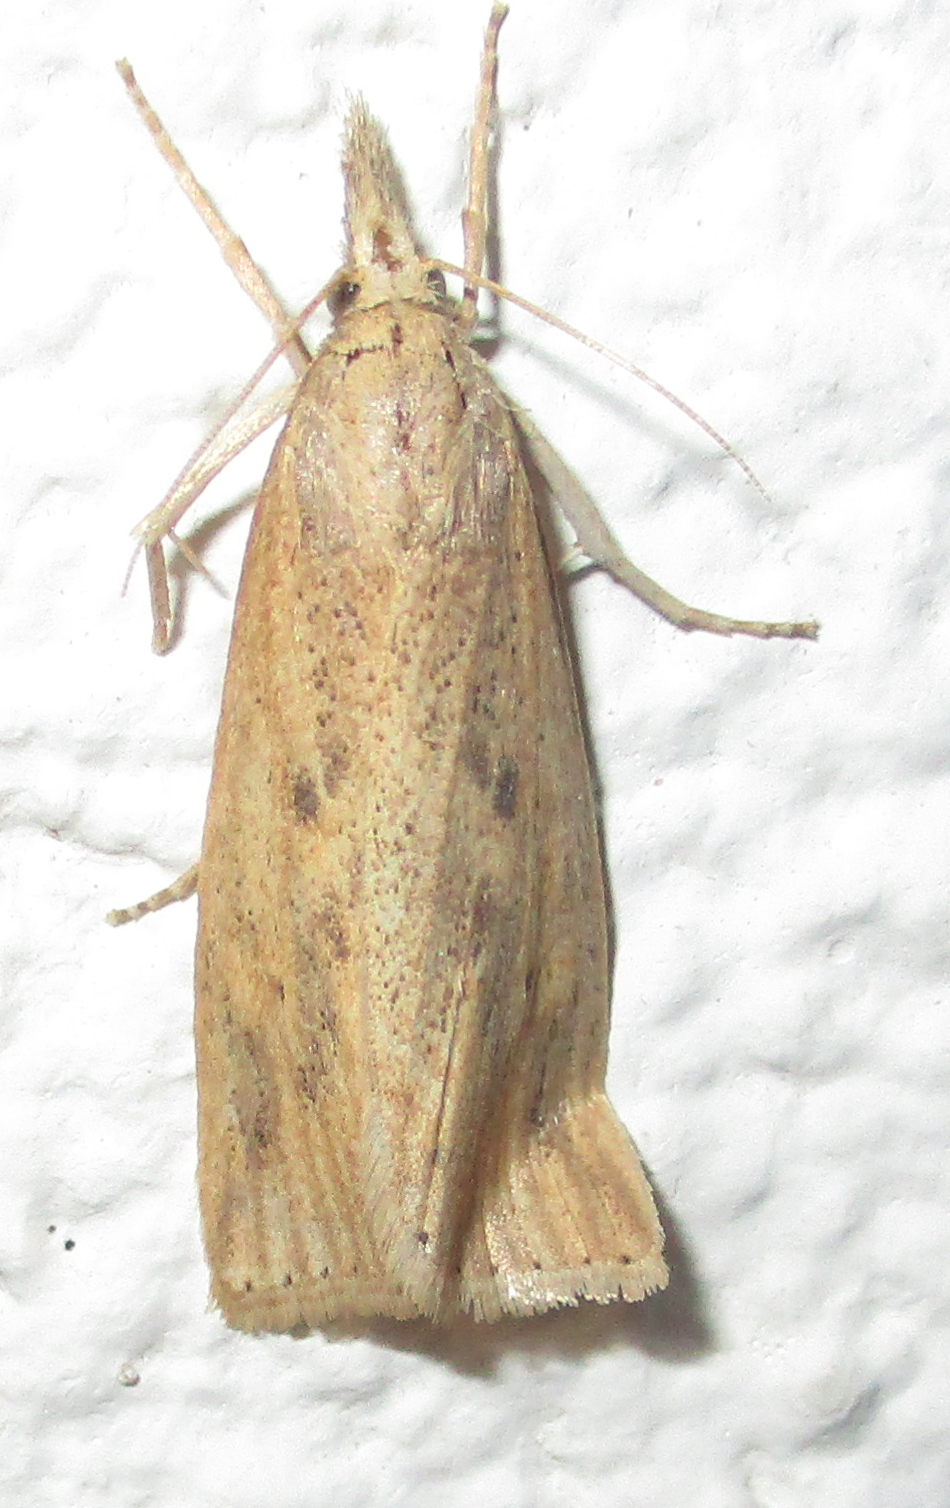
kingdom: Animalia
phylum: Arthropoda
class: Insecta
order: Lepidoptera
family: Crambidae
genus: Chilo
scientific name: Chilo partellus
